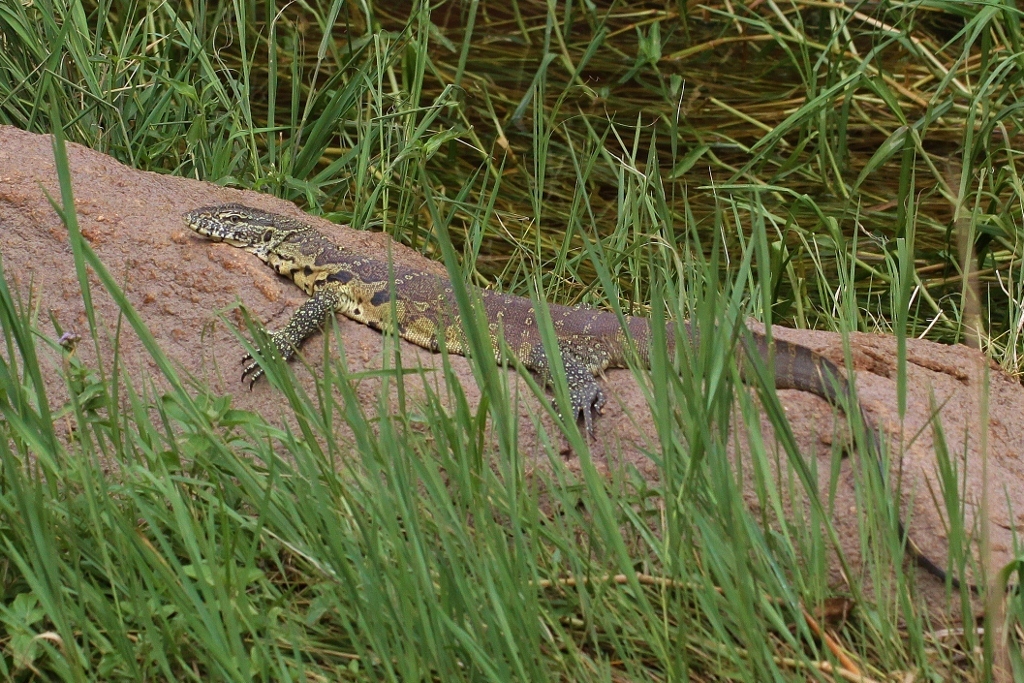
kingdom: Animalia
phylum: Chordata
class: Squamata
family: Varanidae
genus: Varanus
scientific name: Varanus niloticus
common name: Nile monitor
